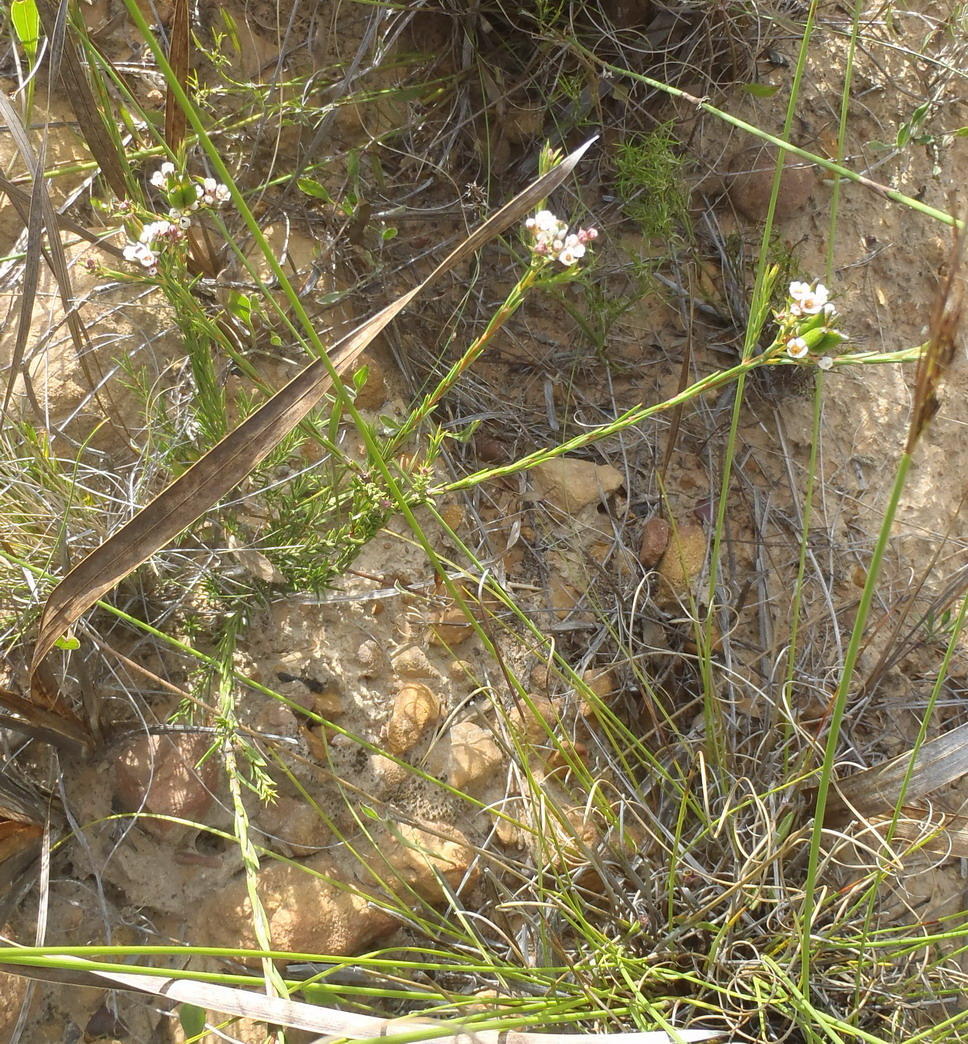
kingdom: Plantae
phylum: Tracheophyta
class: Magnoliopsida
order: Sapindales
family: Rutaceae
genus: Diosma
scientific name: Diosma hirsuta
